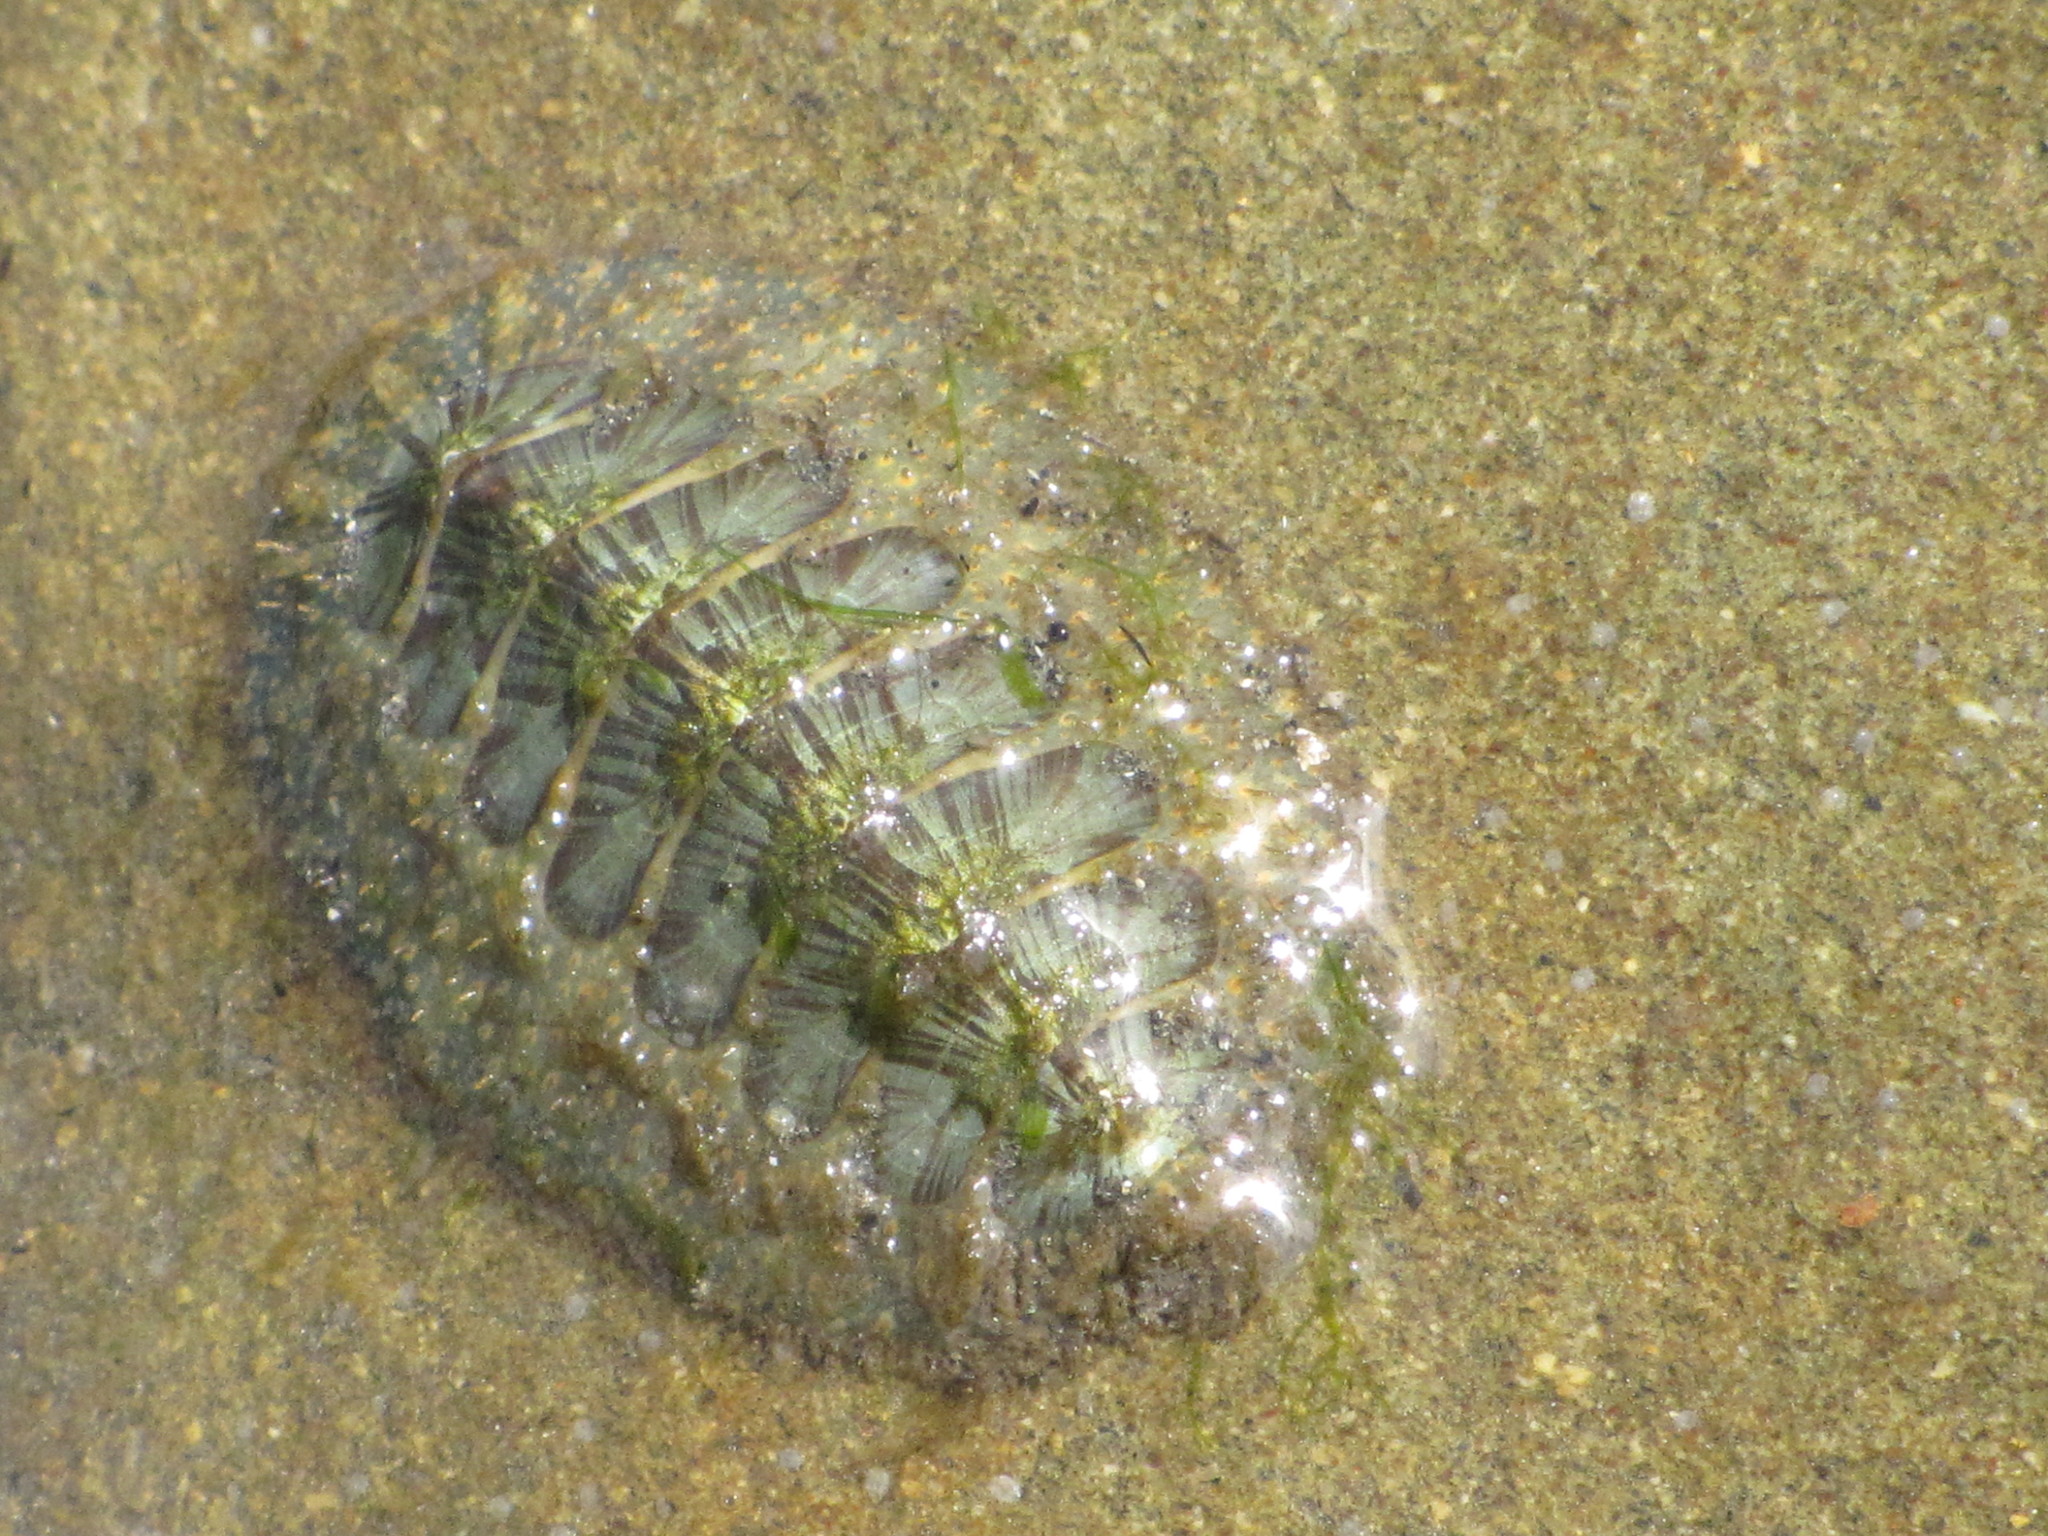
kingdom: Animalia
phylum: Mollusca
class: Polyplacophora
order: Chitonida
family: Mopaliidae
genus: Mopalia
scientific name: Mopalia lignosa
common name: Woody chiton
